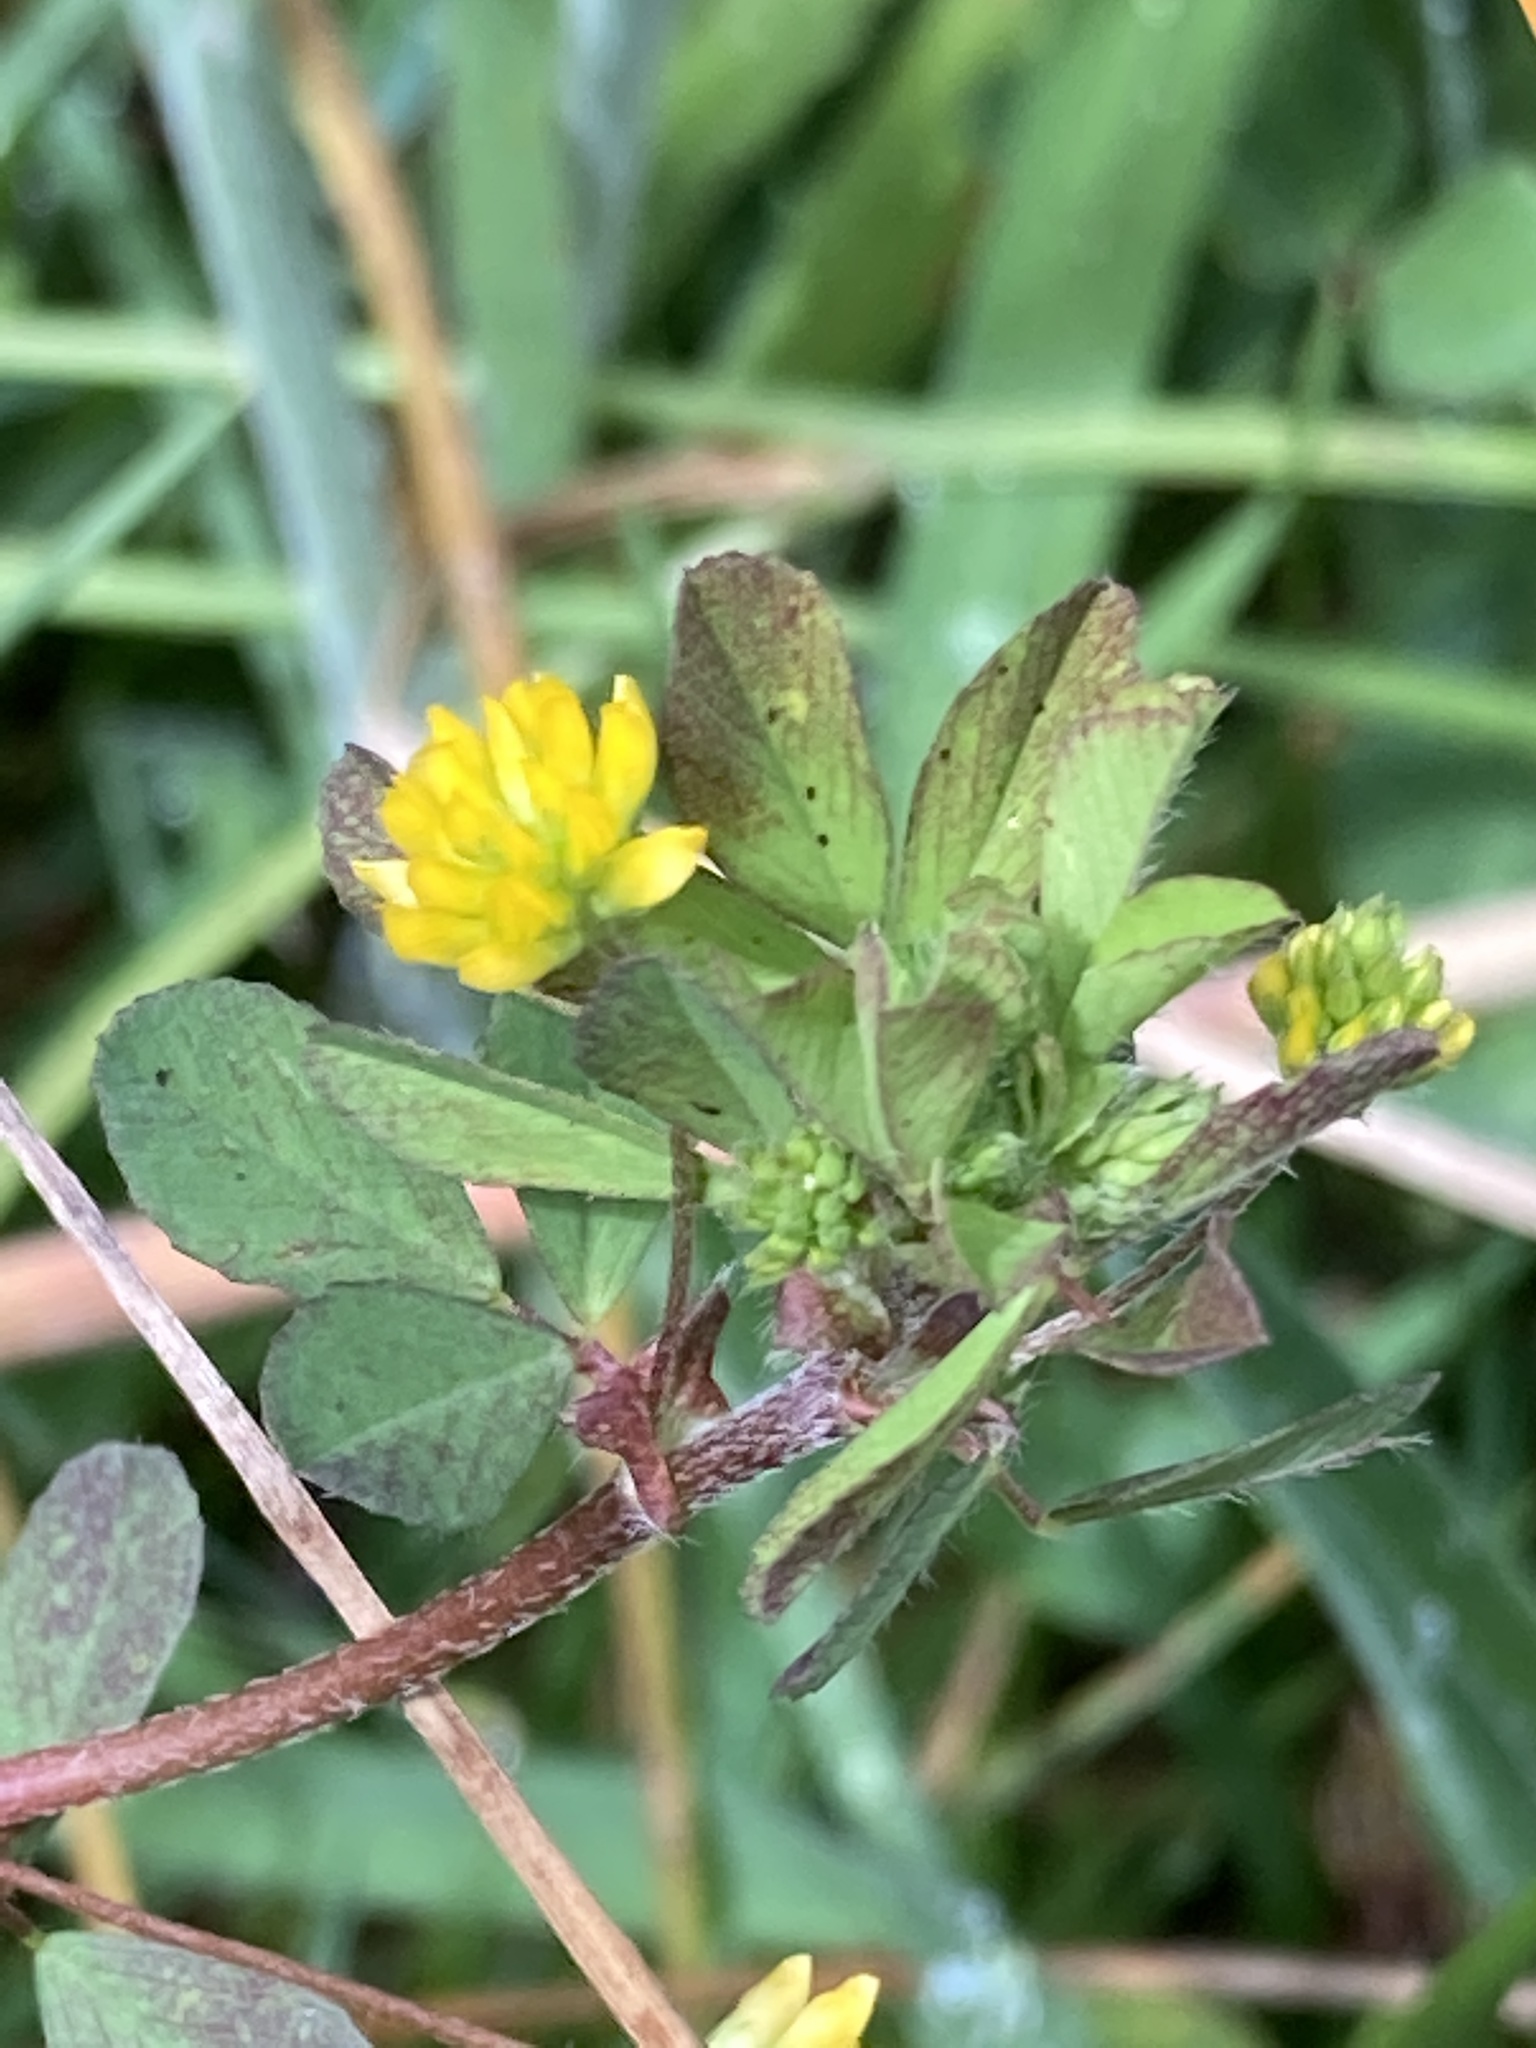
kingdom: Plantae
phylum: Tracheophyta
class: Magnoliopsida
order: Fabales
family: Fabaceae
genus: Trifolium
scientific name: Trifolium dubium
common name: Suckling clover
